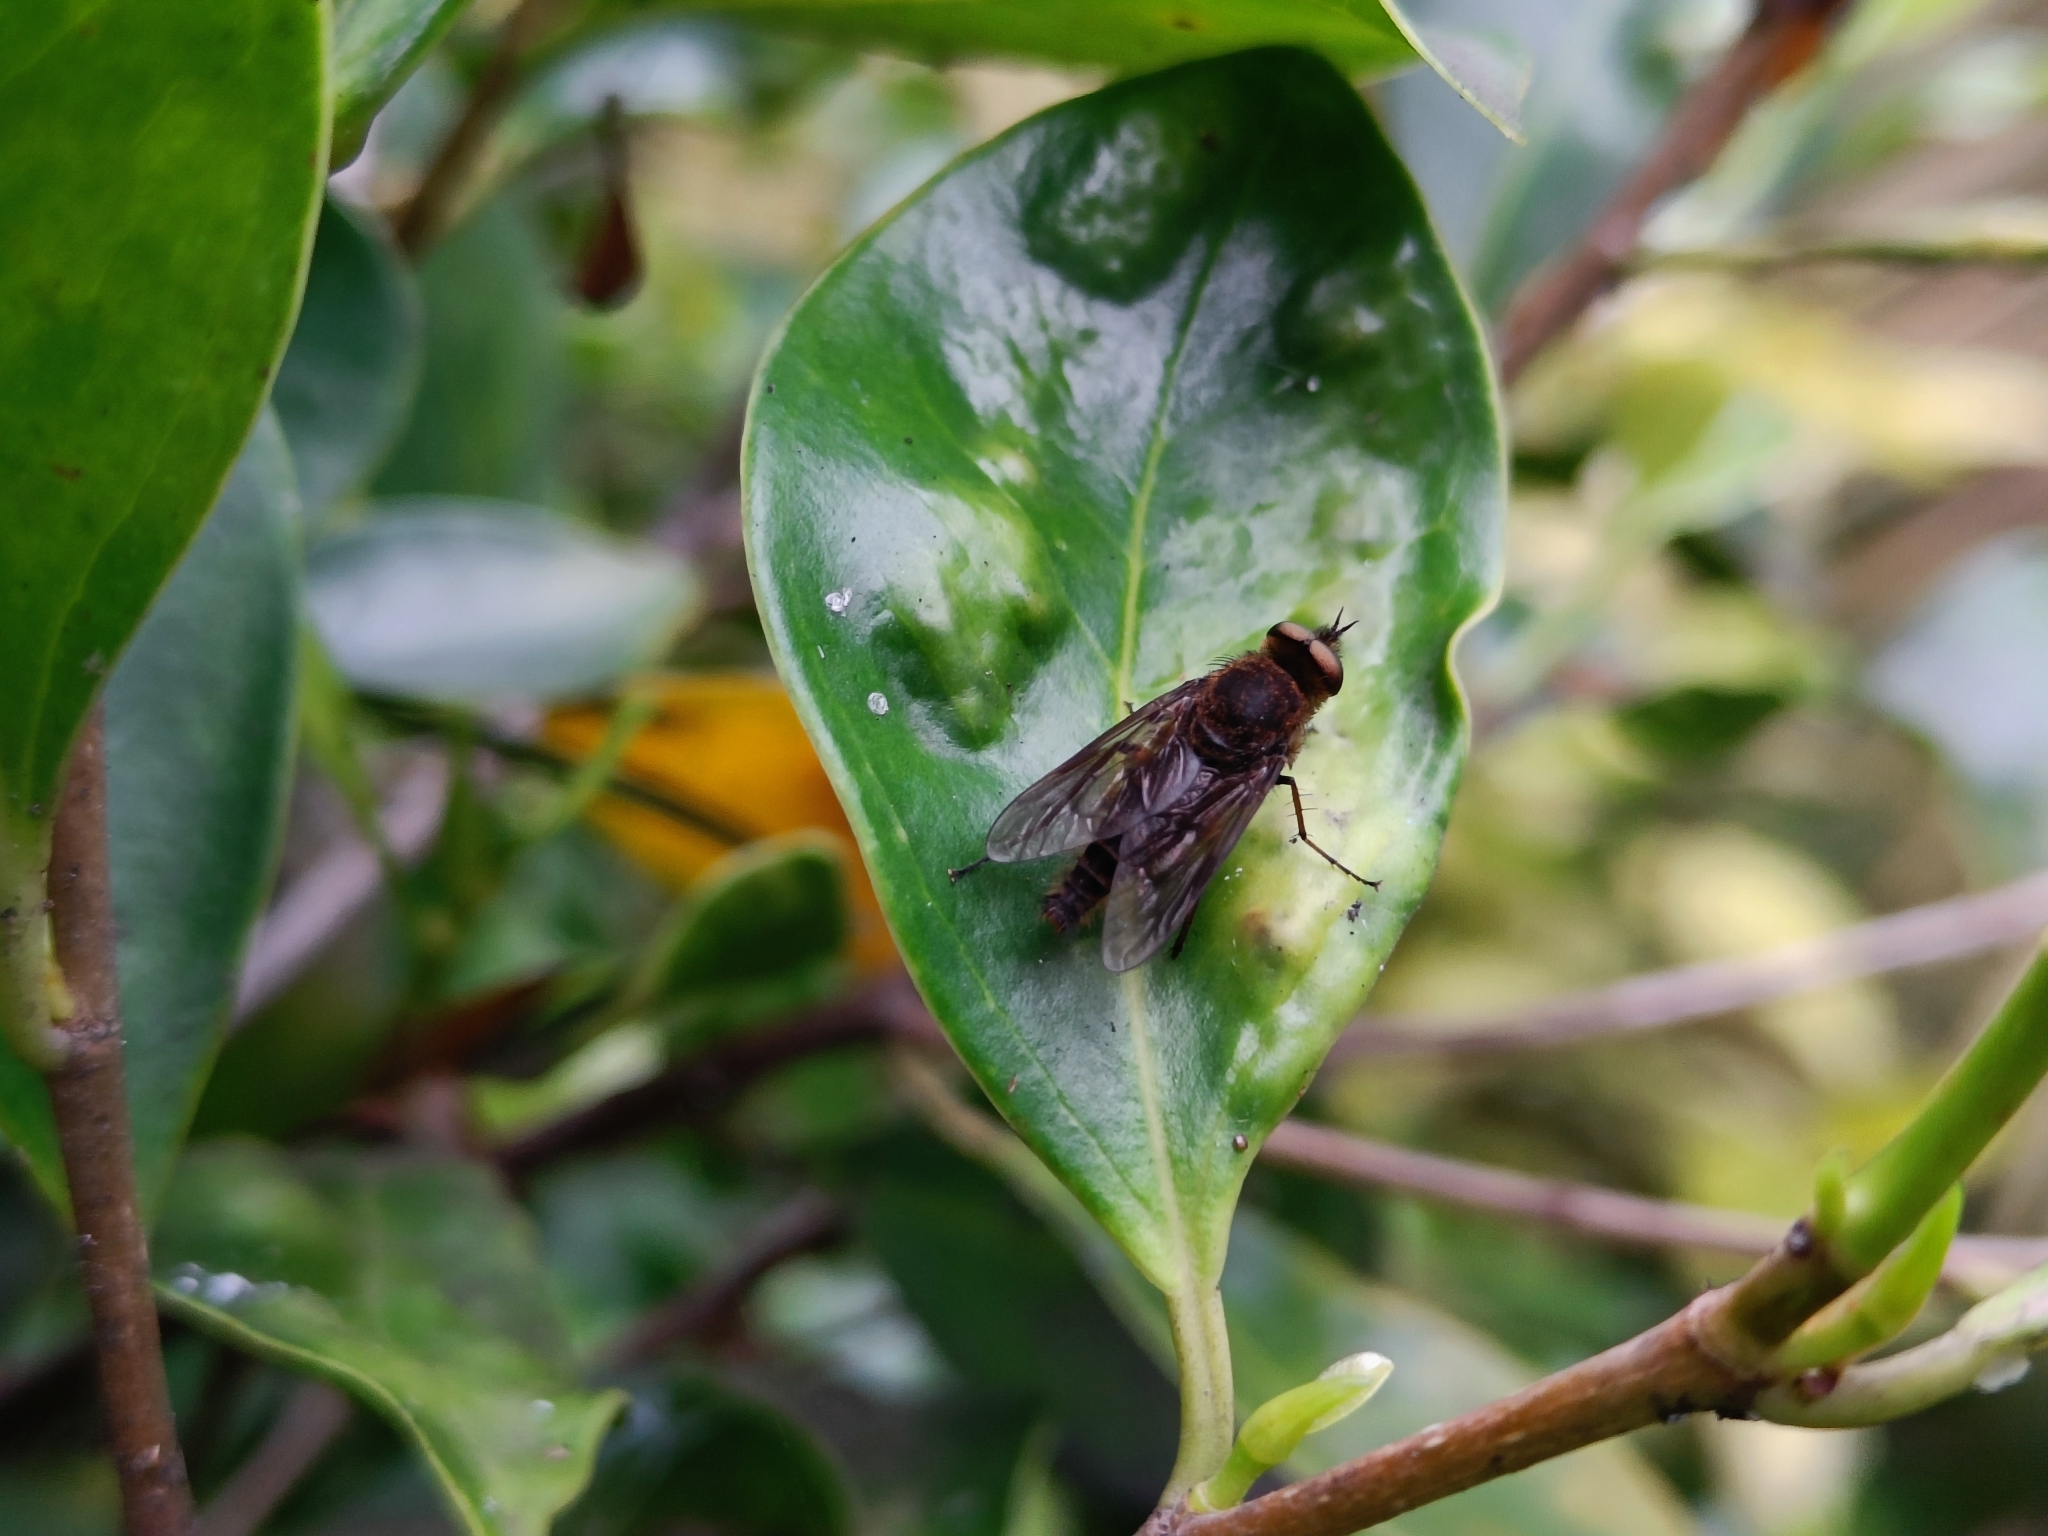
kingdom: Animalia
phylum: Arthropoda
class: Insecta
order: Diptera
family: Therevidae
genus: Thereva
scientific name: Thereva occulta
